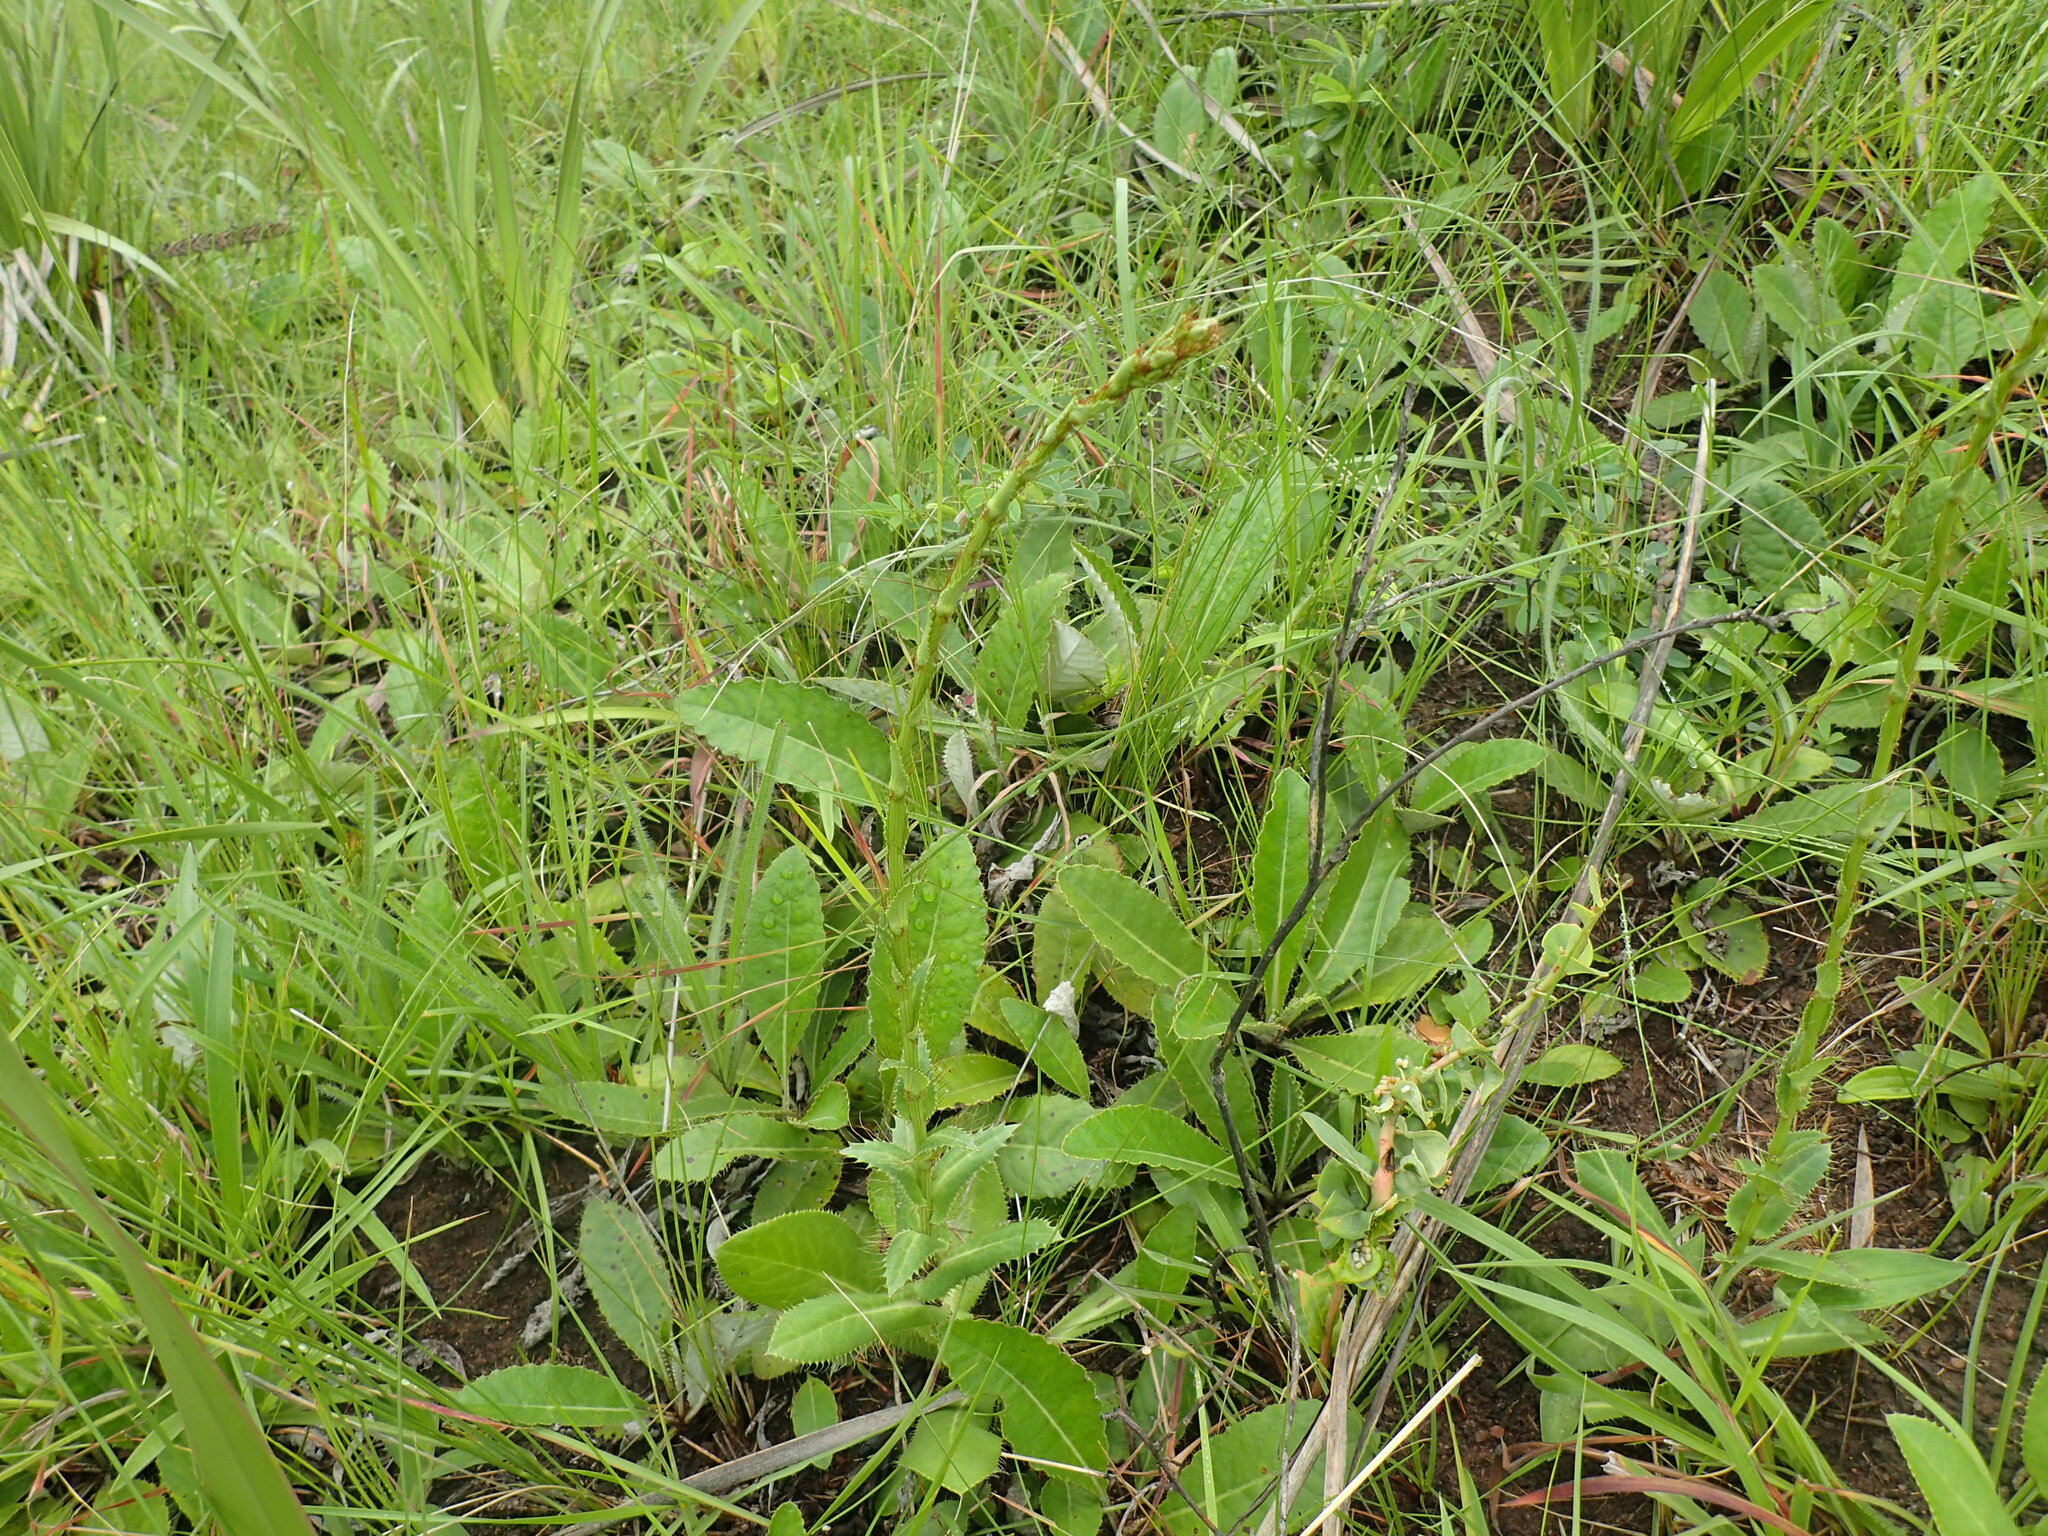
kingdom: Plantae
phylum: Tracheophyta
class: Magnoliopsida
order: Apiales
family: Apiaceae
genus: Alepidea
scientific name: Alepidea peduncularis
